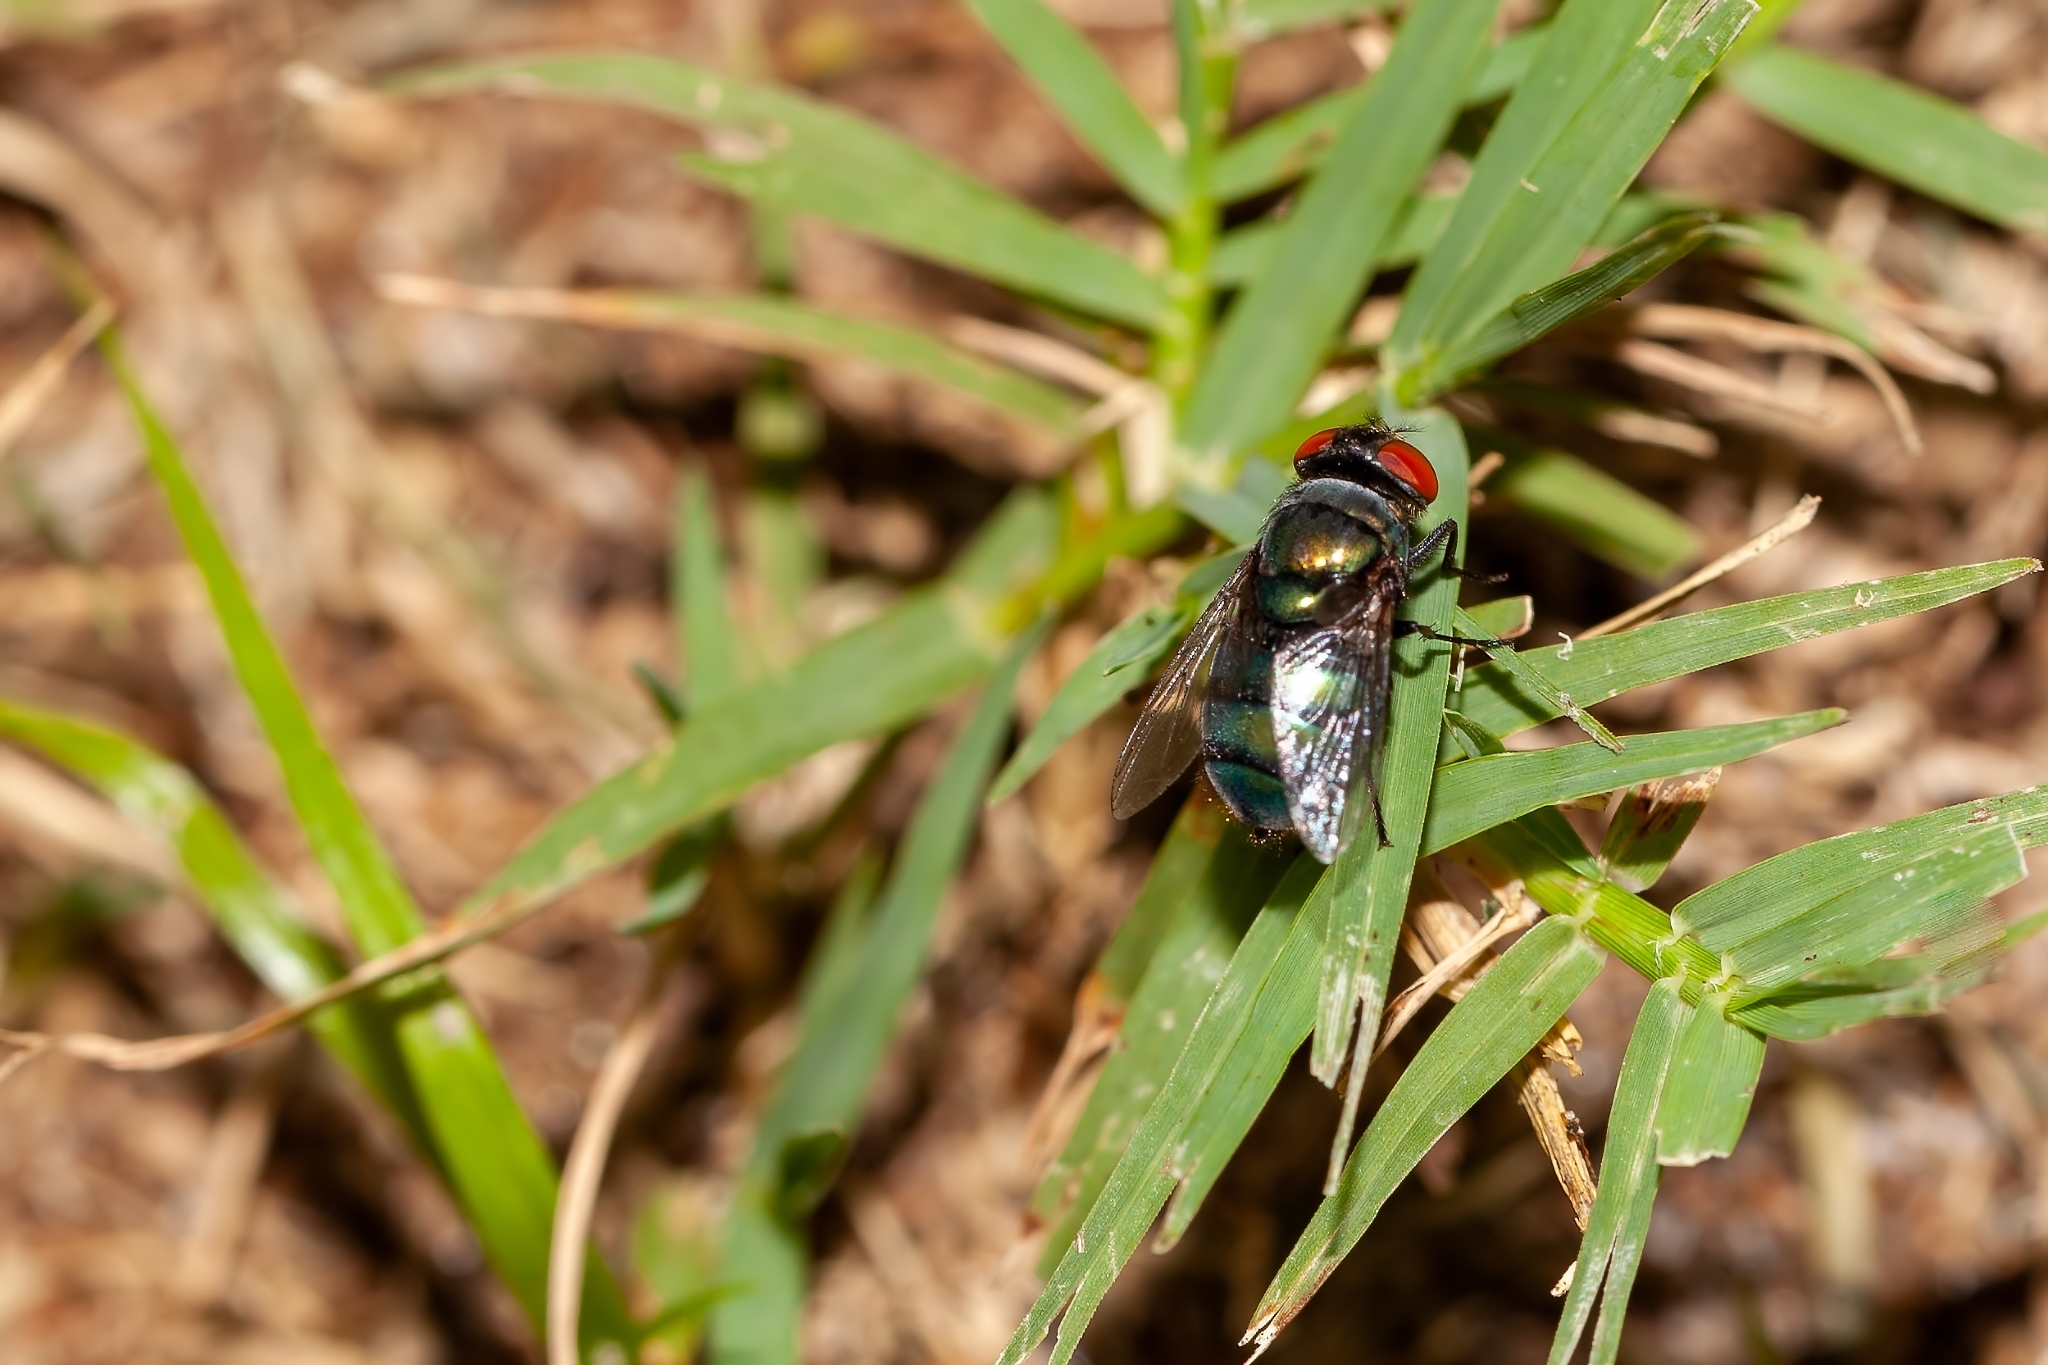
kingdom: Animalia
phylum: Arthropoda
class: Insecta
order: Diptera
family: Calliphoridae
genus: Chrysomya
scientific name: Chrysomya megacephala
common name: Blow fly
